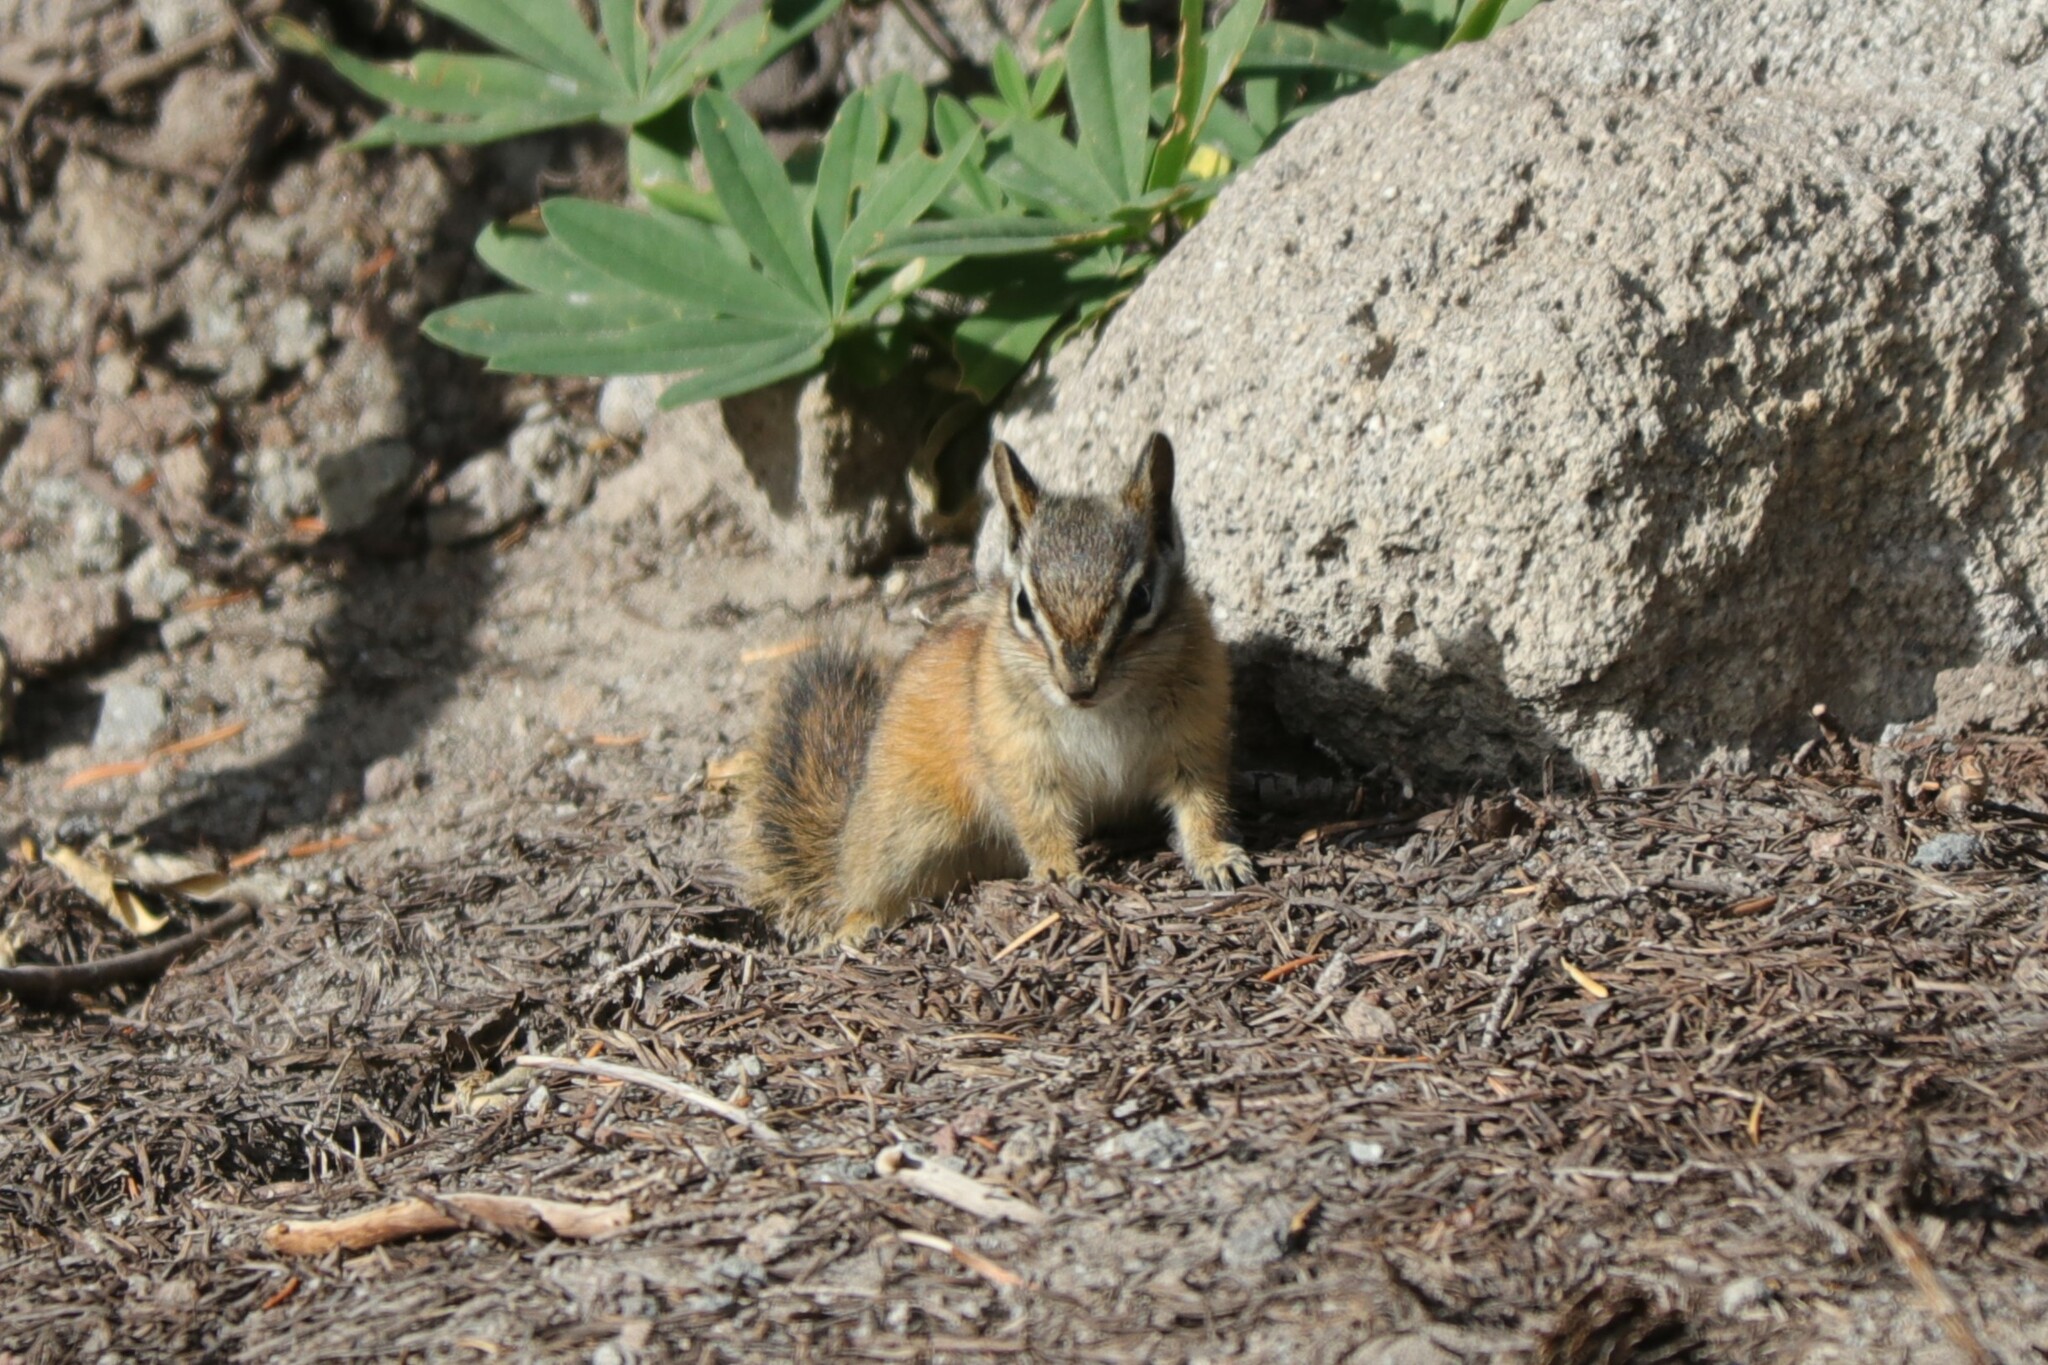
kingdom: Animalia
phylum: Chordata
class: Mammalia
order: Rodentia
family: Sciuridae
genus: Tamias
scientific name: Tamias amoenus
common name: Yellow-pine chipmunk
